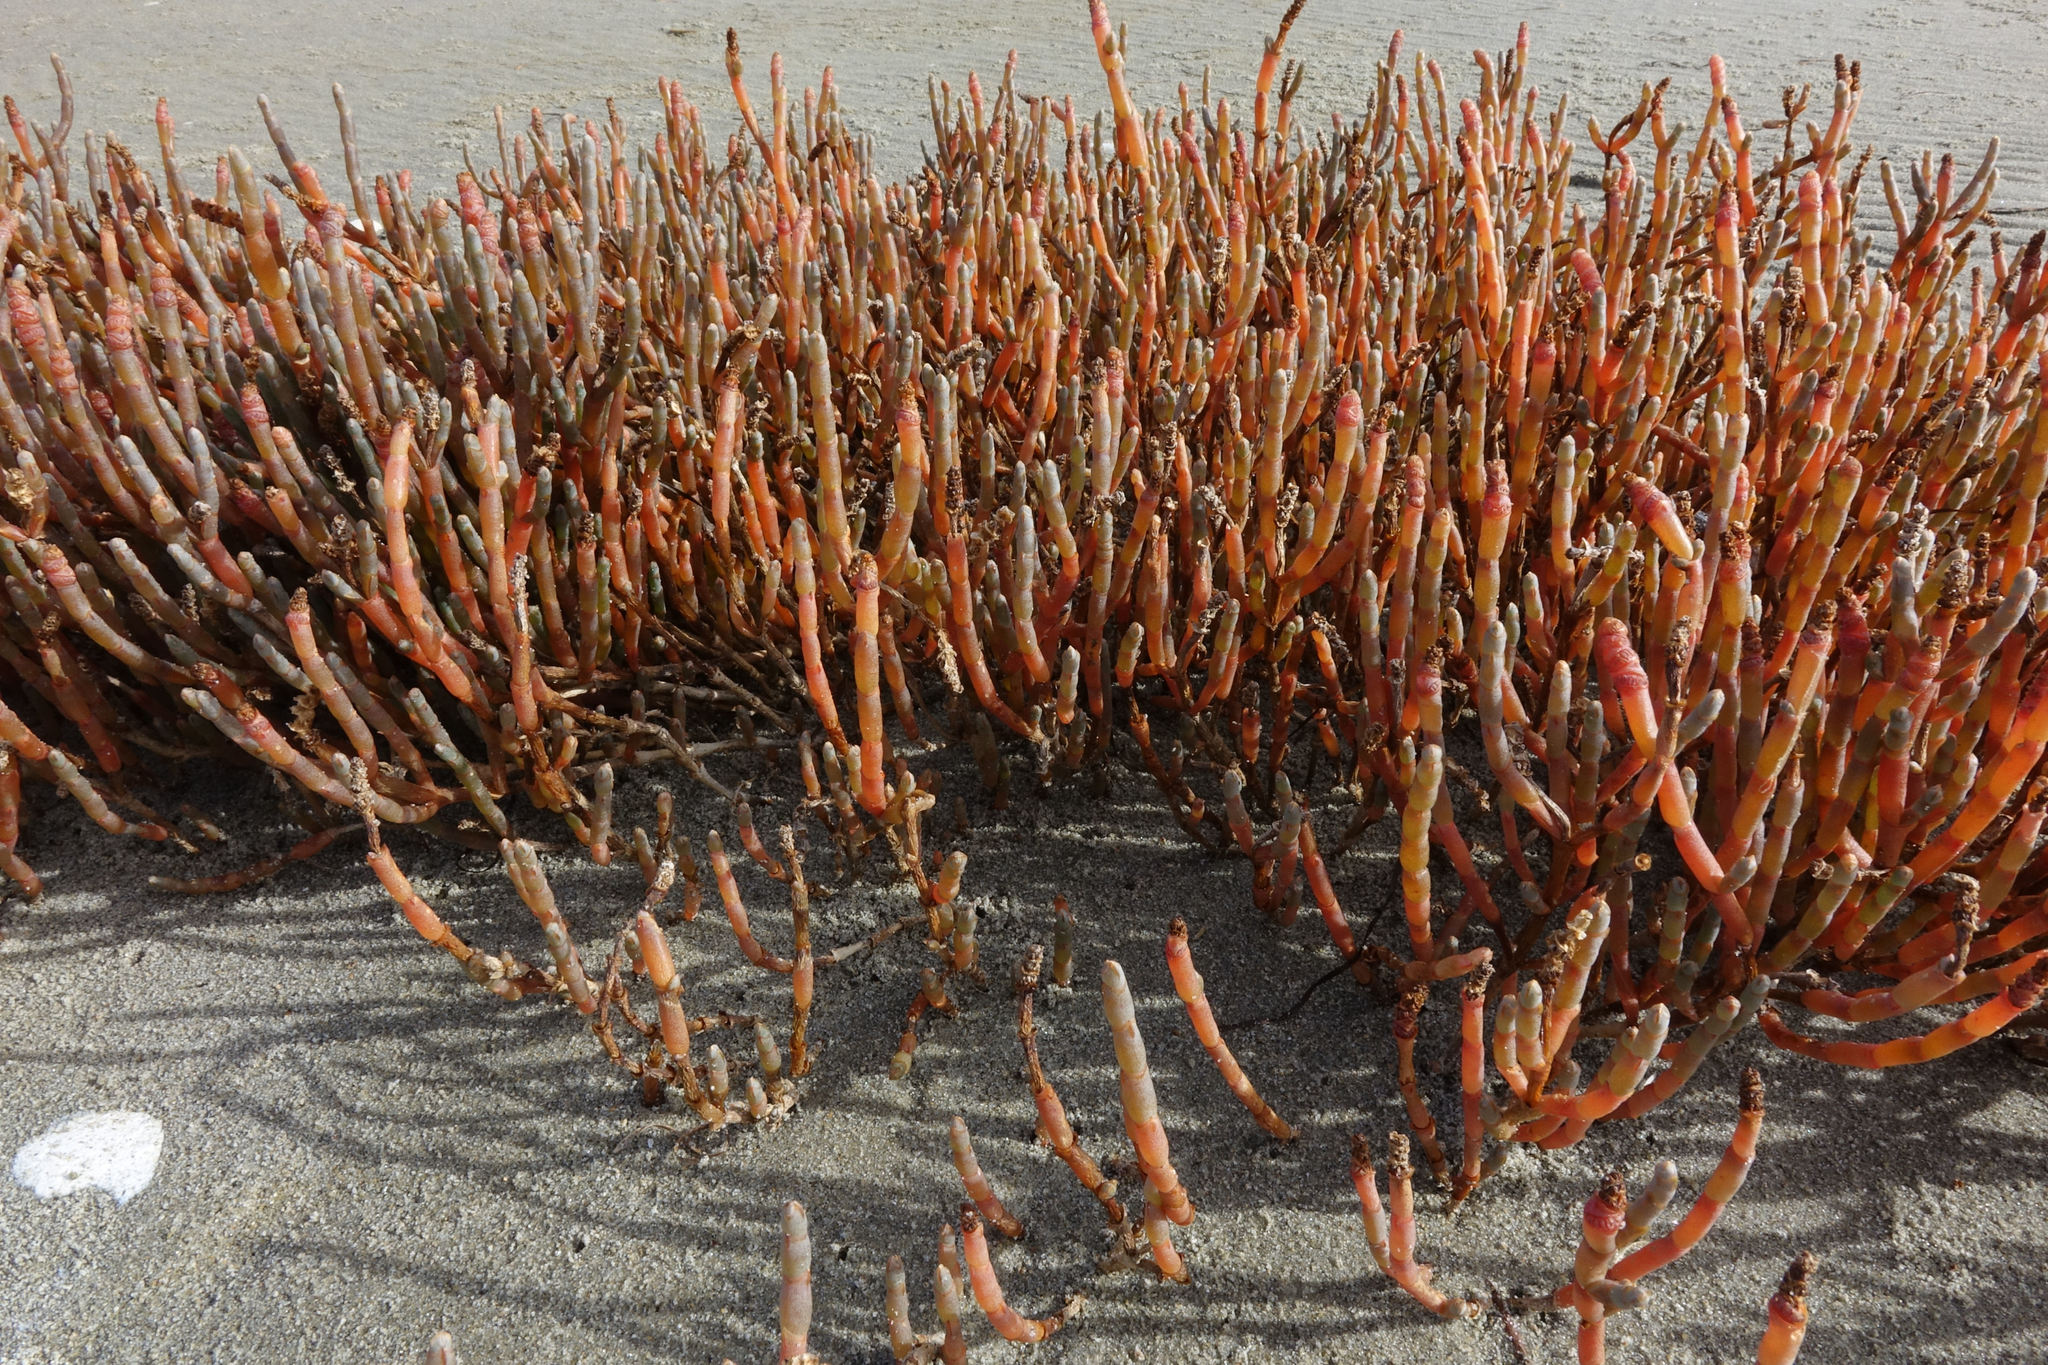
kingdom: Plantae
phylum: Tracheophyta
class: Magnoliopsida
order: Caryophyllales
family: Amaranthaceae
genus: Salicornia
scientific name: Salicornia quinqueflora
